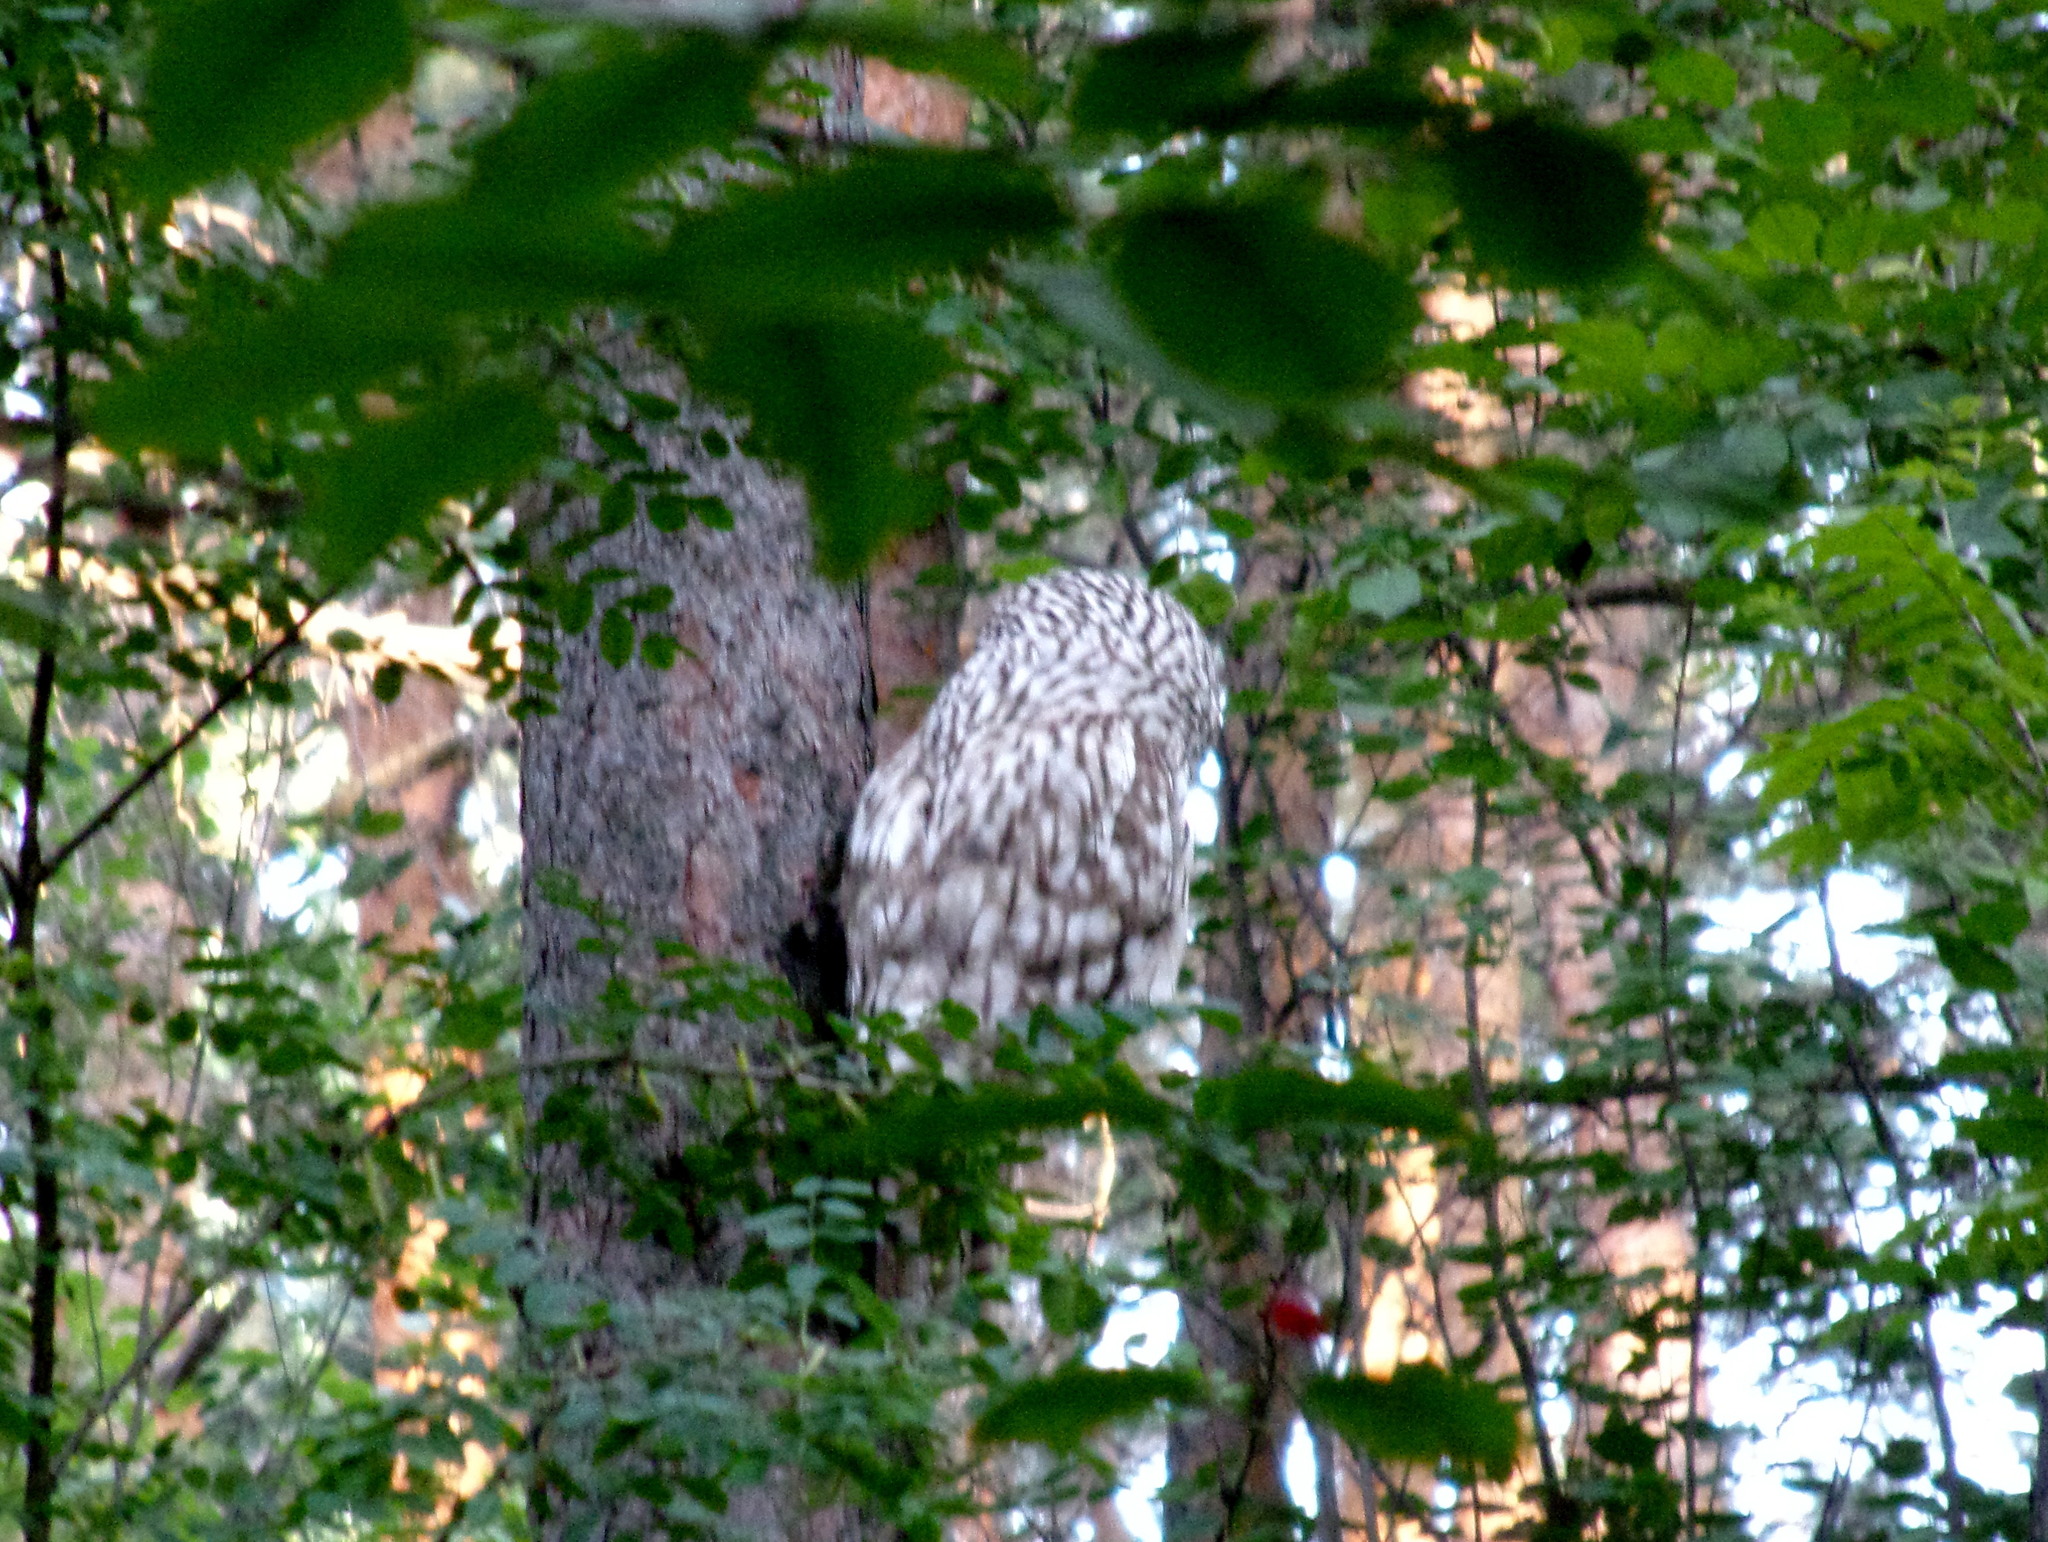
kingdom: Animalia
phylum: Chordata
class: Aves
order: Strigiformes
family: Strigidae
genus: Strix
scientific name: Strix uralensis
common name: Ural owl
